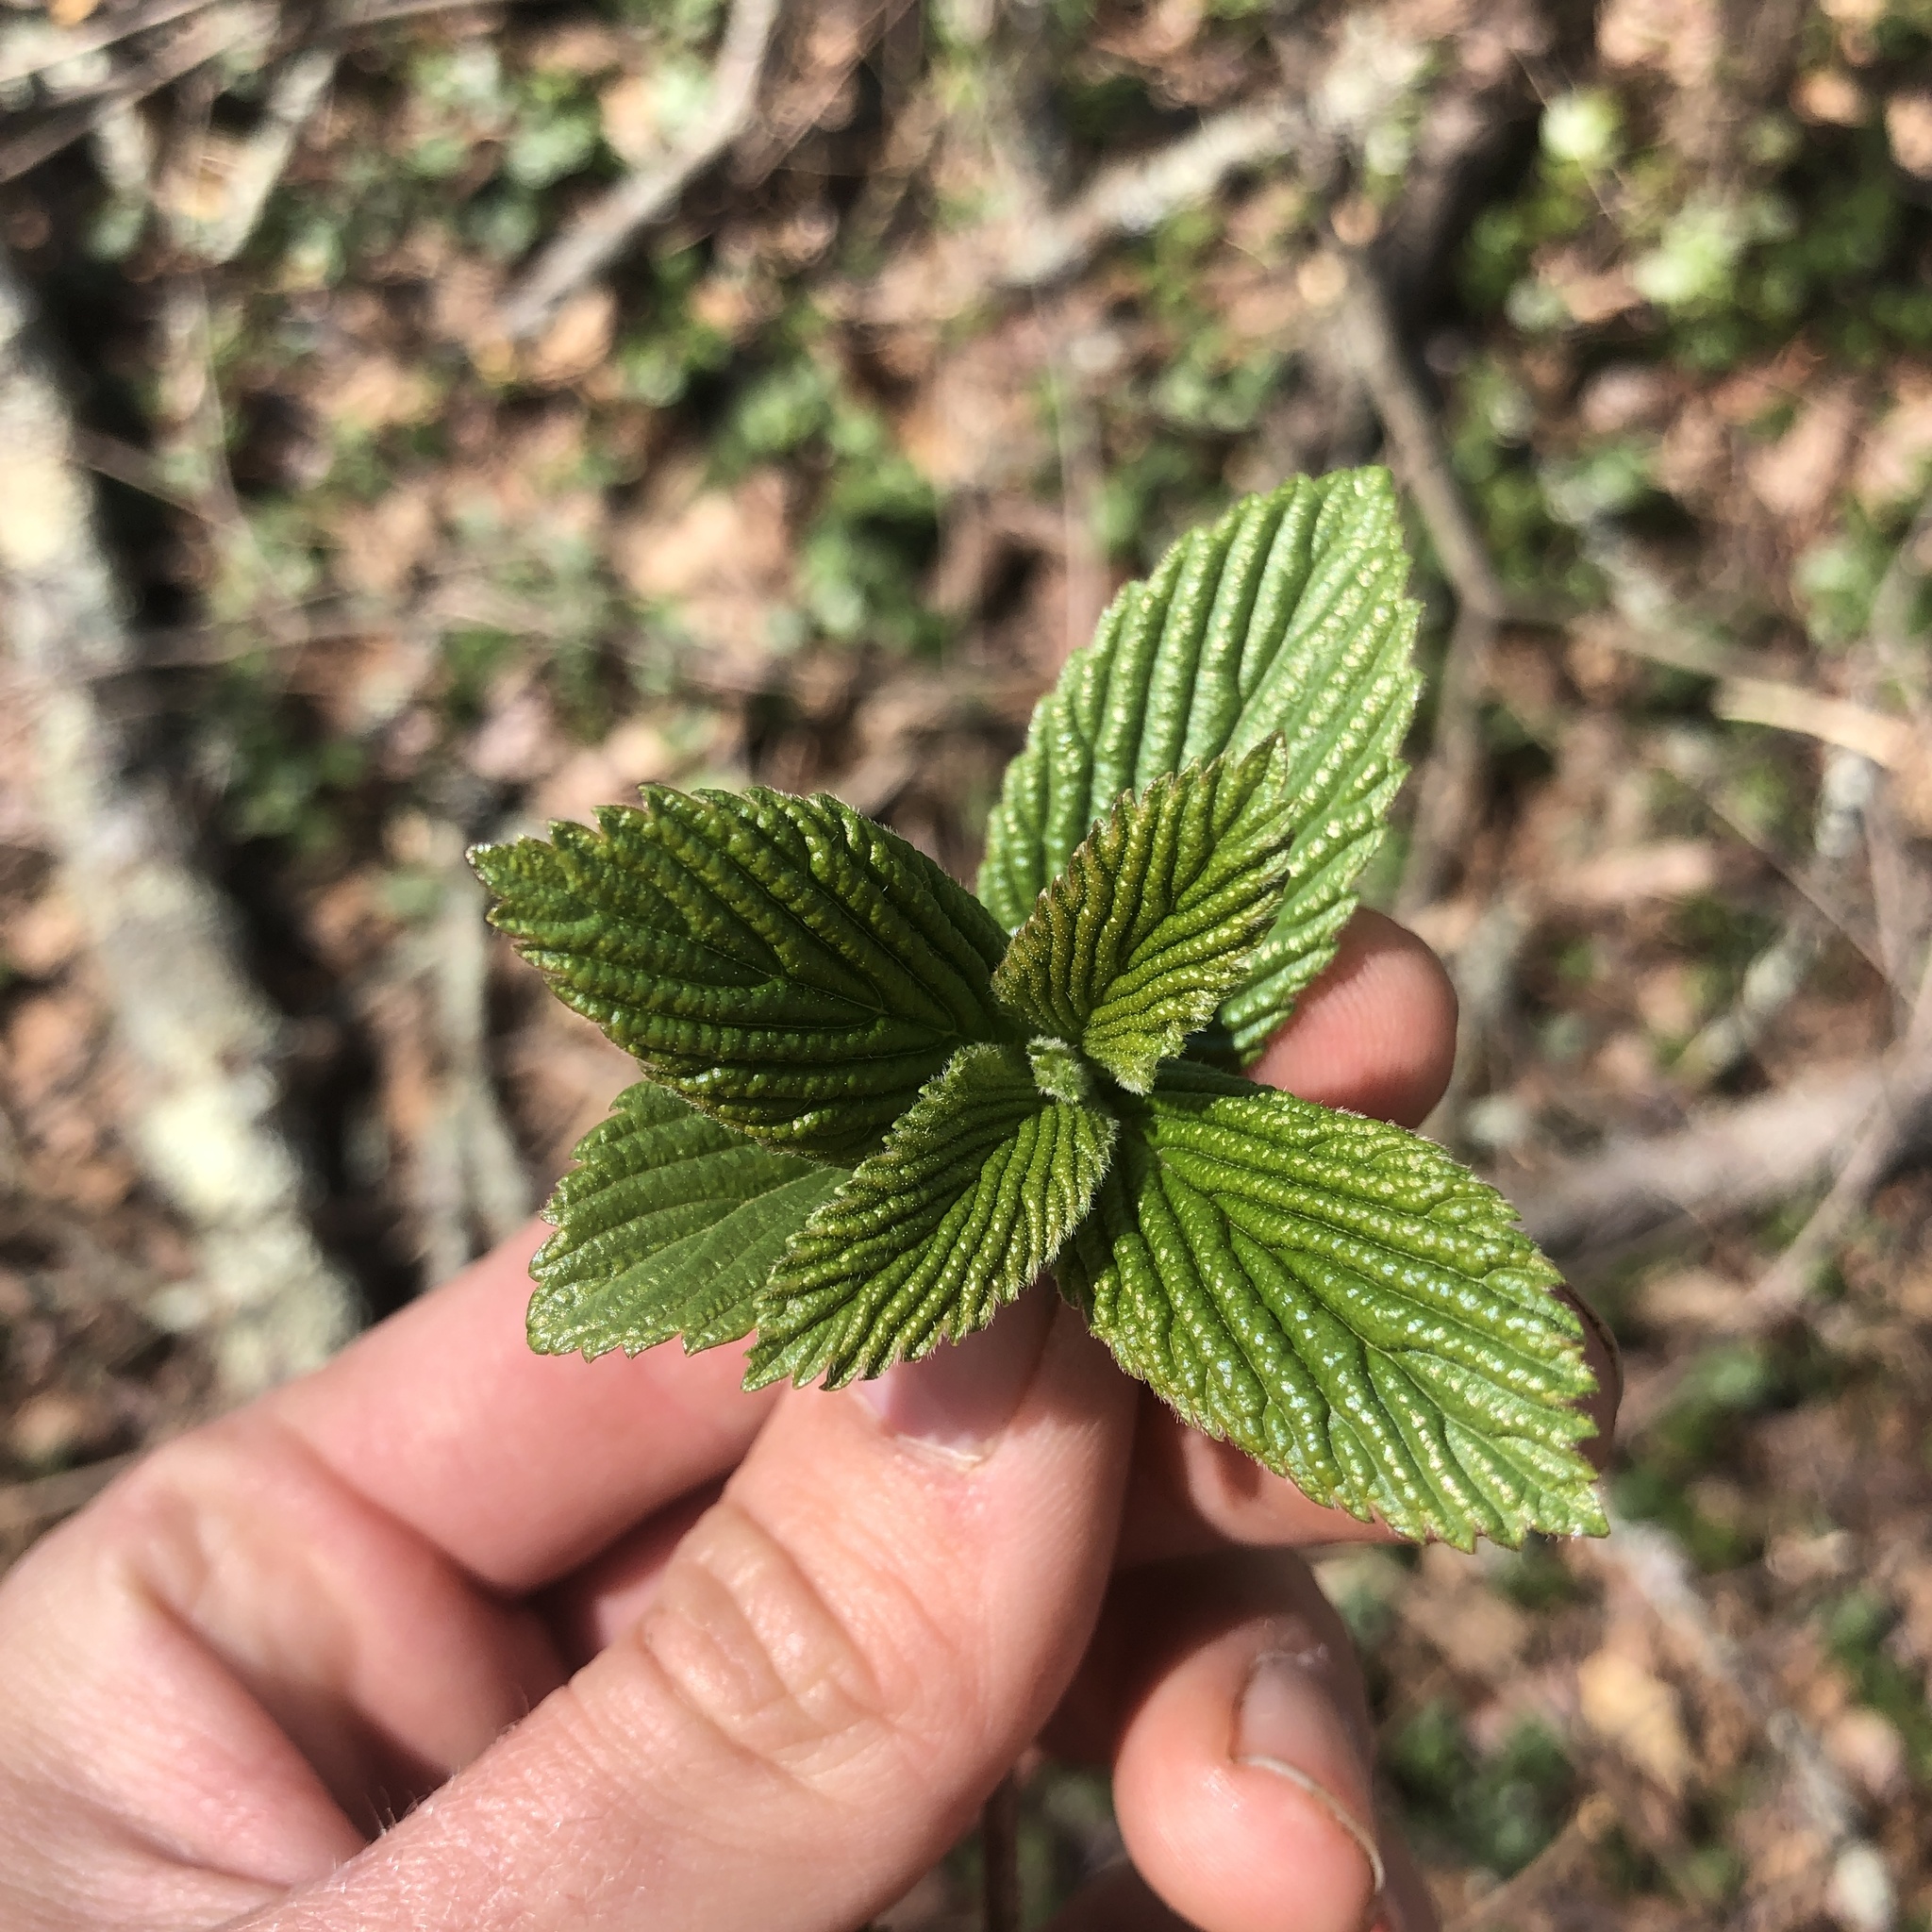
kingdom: Plantae
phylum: Tracheophyta
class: Magnoliopsida
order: Dipsacales
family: Viburnaceae
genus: Viburnum
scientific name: Viburnum sieboldii
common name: Siebold's arrowwood
